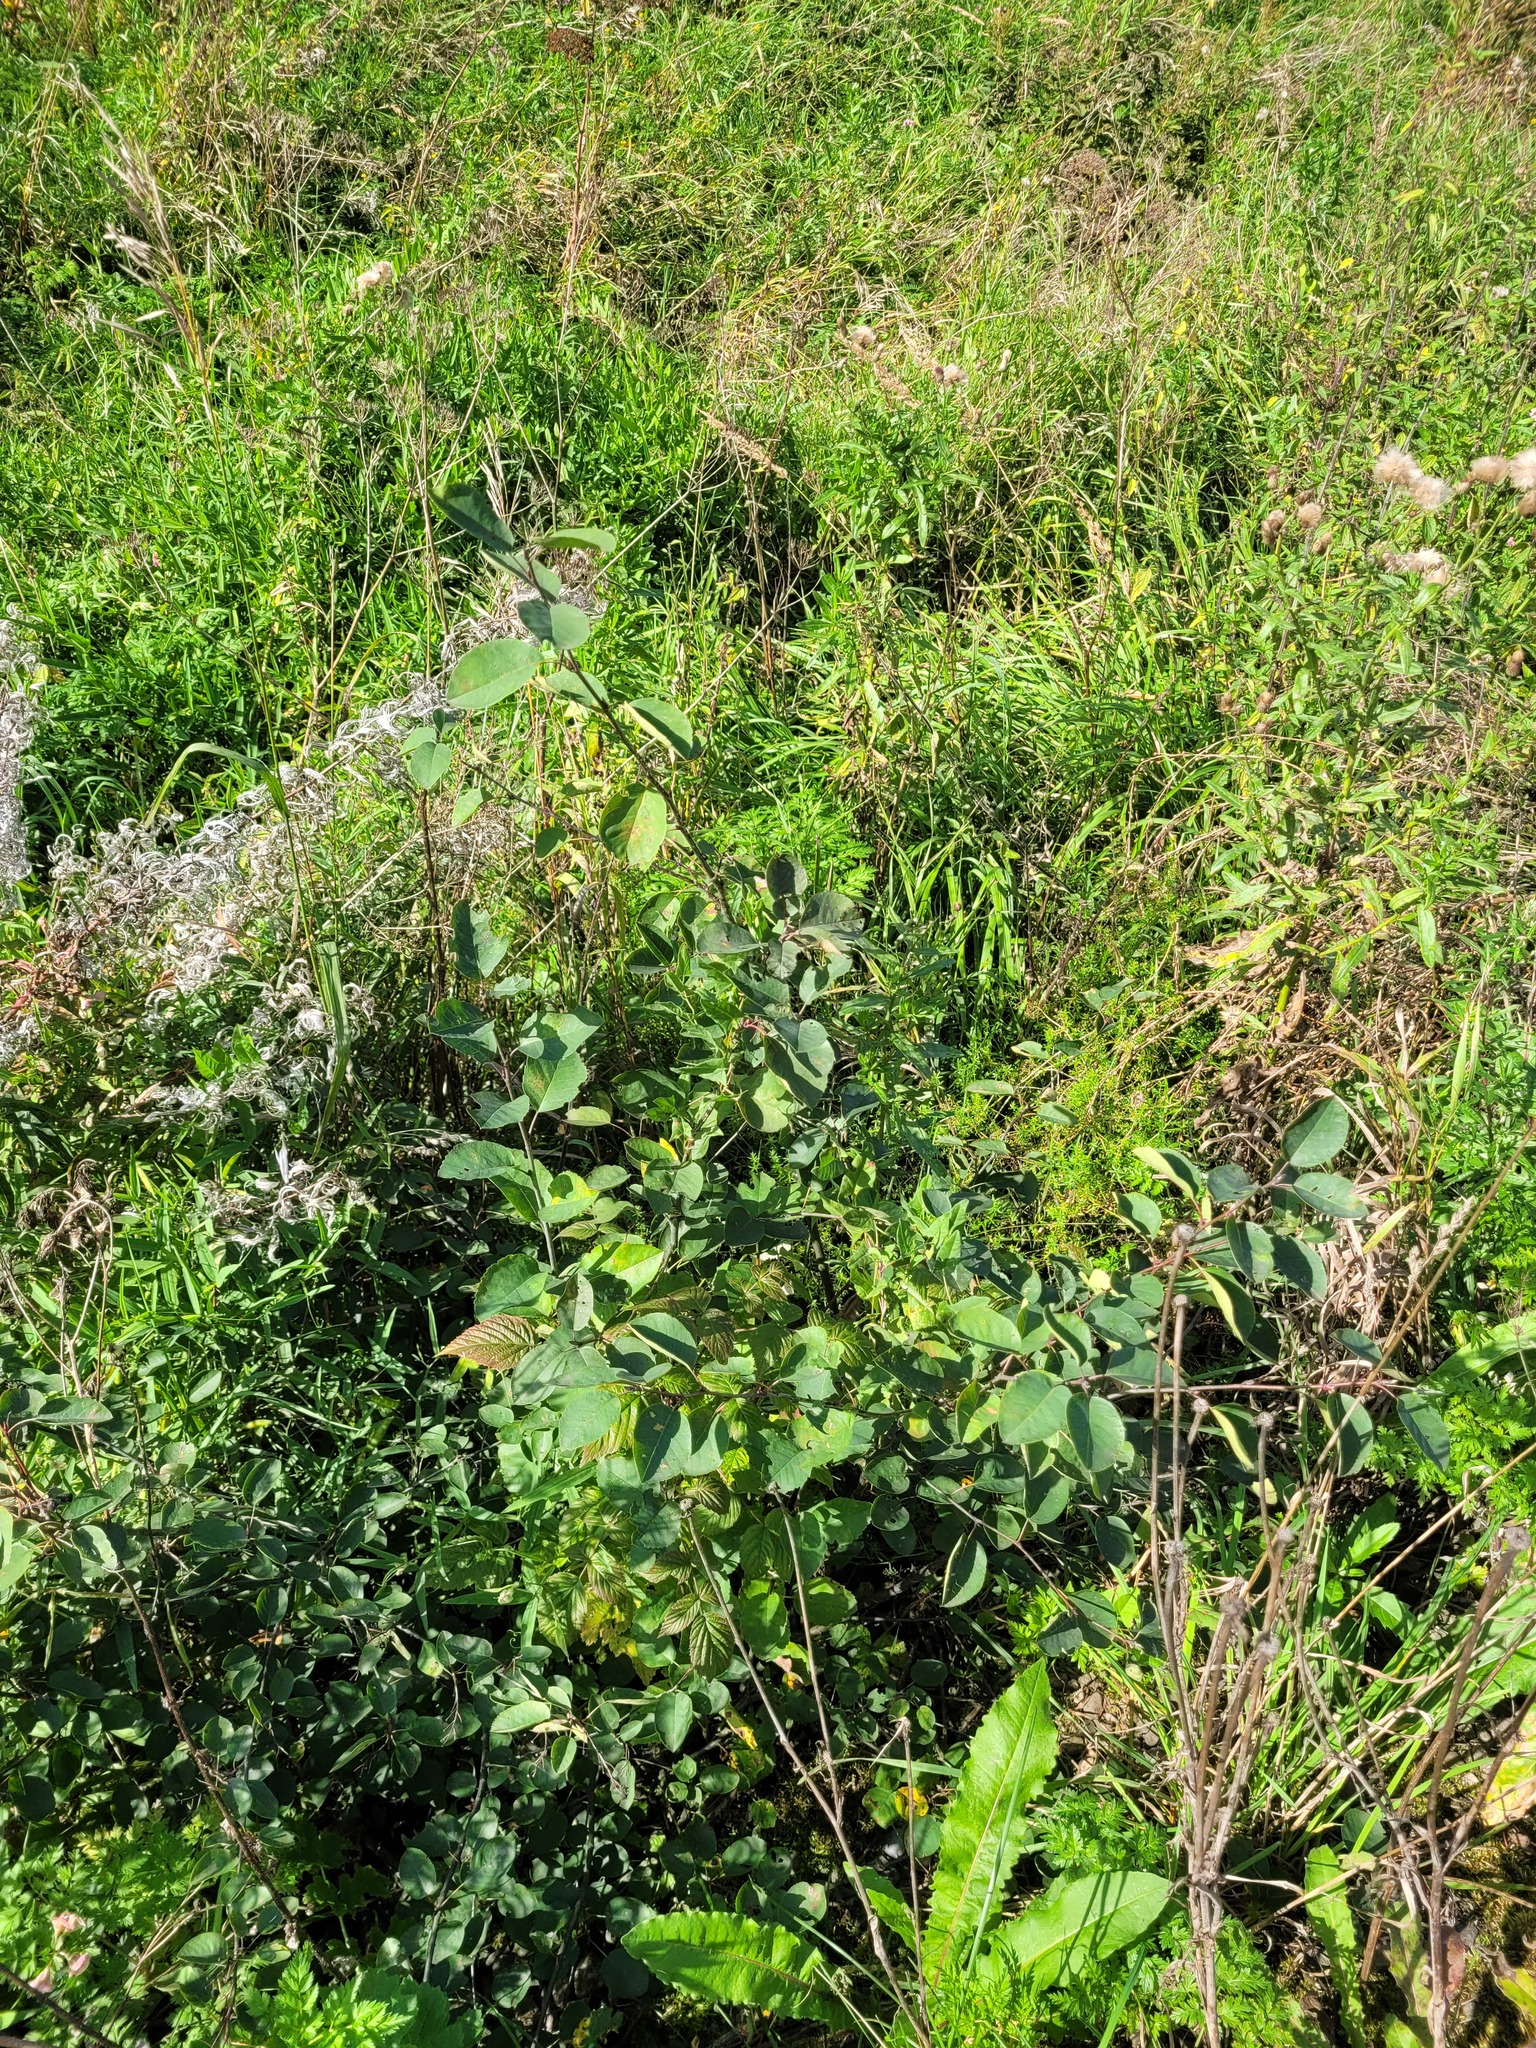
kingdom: Plantae
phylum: Tracheophyta
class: Magnoliopsida
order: Rosales
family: Rosaceae
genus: Amelanchier
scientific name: Amelanchier
